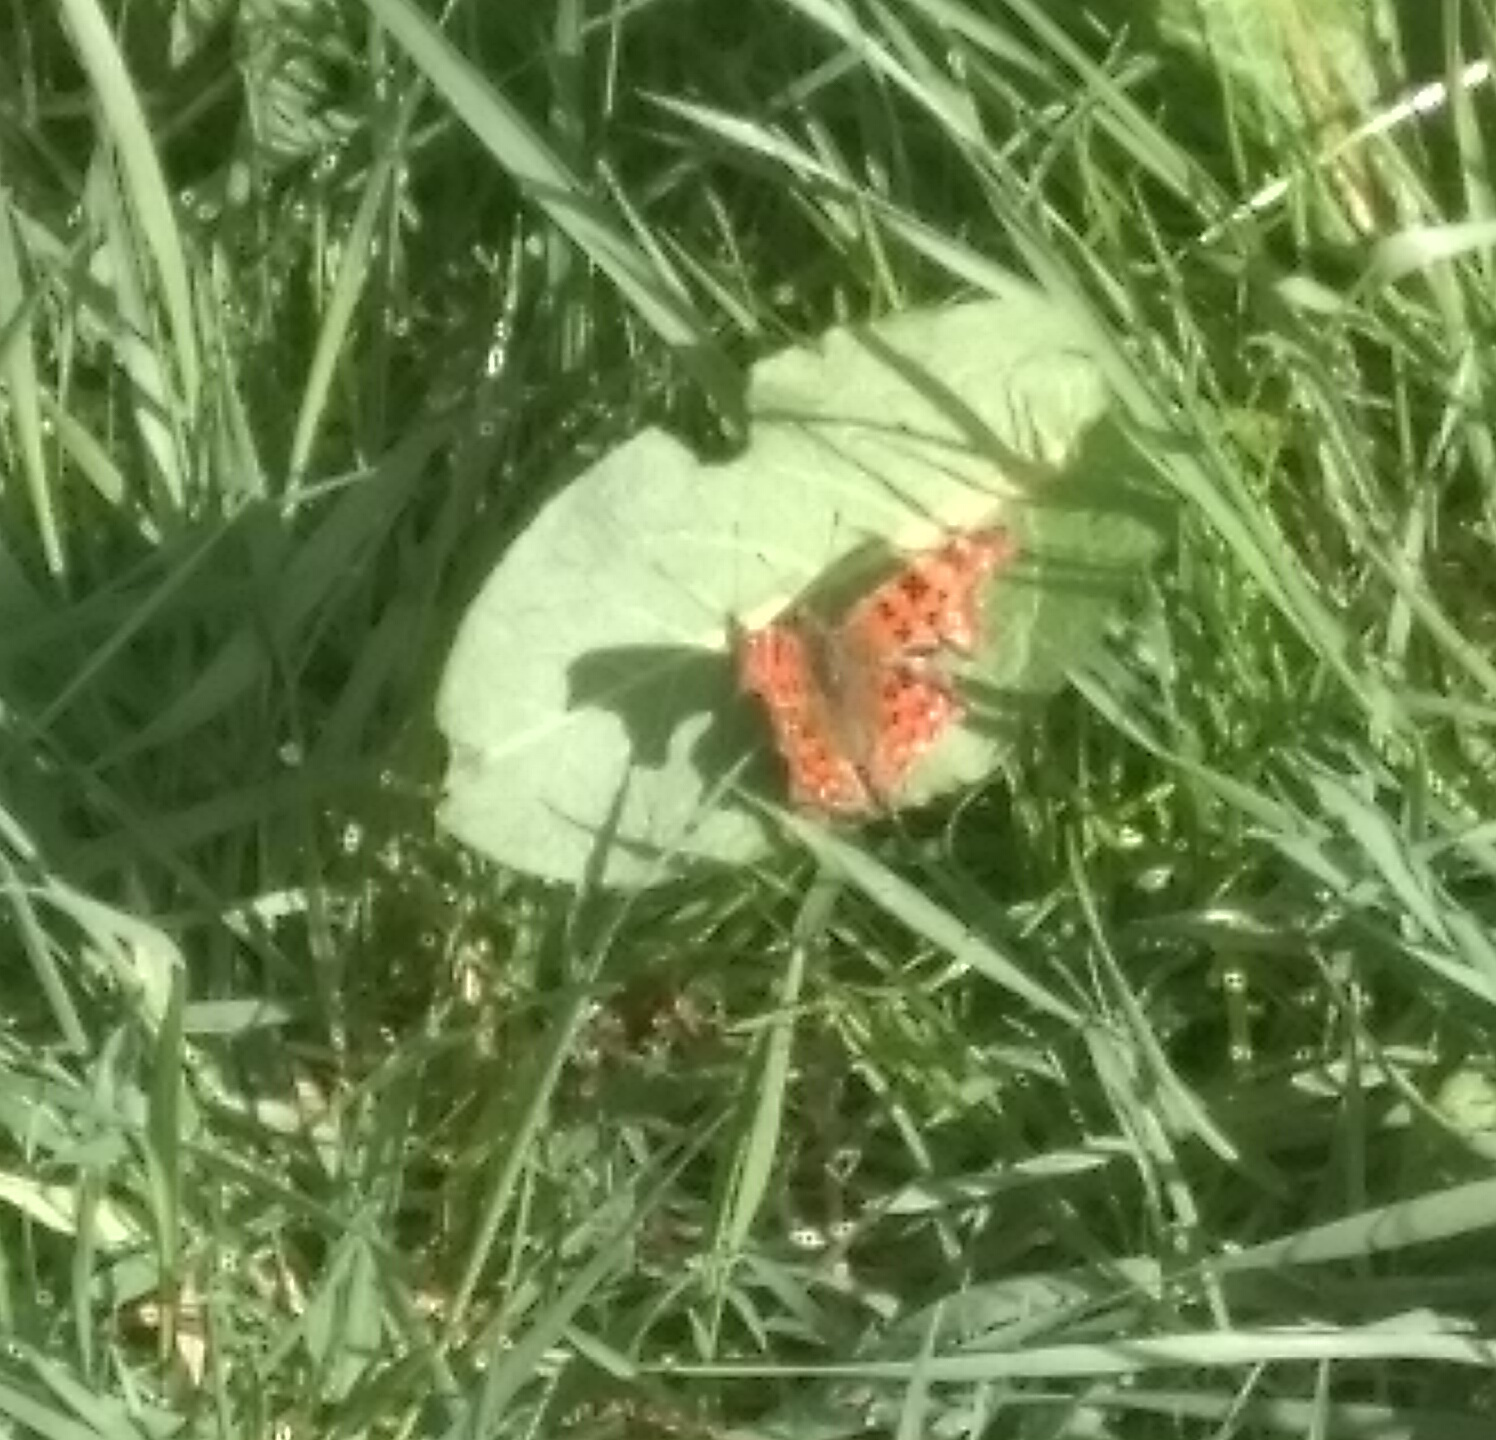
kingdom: Animalia
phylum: Arthropoda
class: Insecta
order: Lepidoptera
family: Nymphalidae
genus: Polygonia
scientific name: Polygonia c-album
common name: Comma
